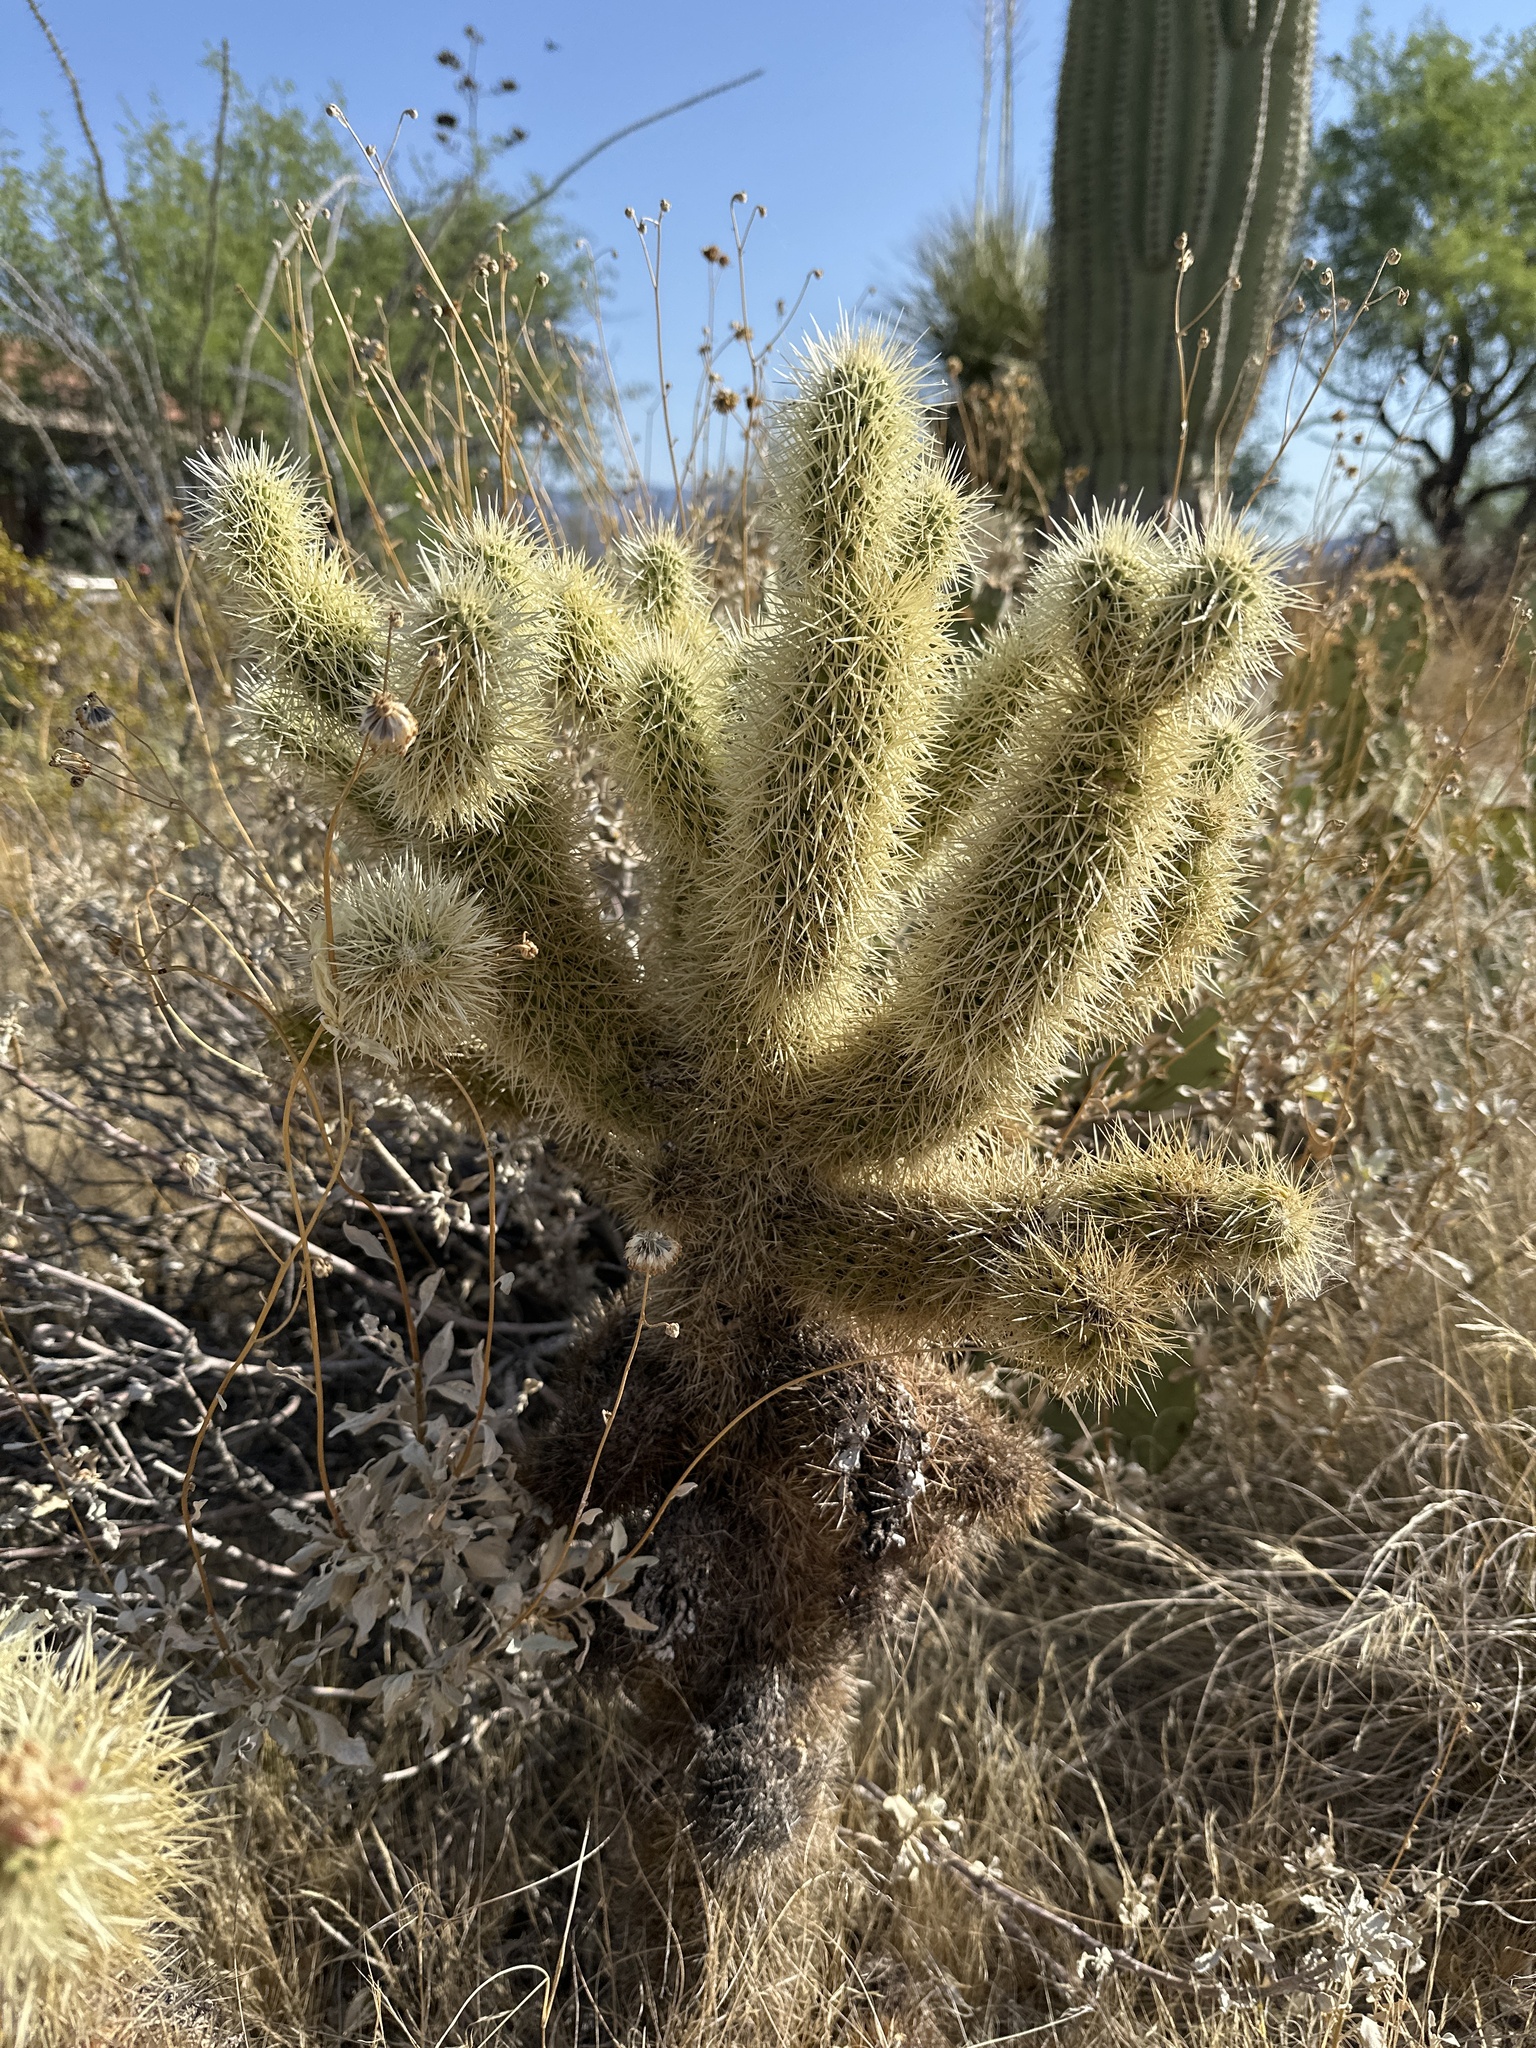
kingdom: Plantae
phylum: Tracheophyta
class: Magnoliopsida
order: Caryophyllales
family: Cactaceae
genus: Cylindropuntia
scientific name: Cylindropuntia fosbergii
